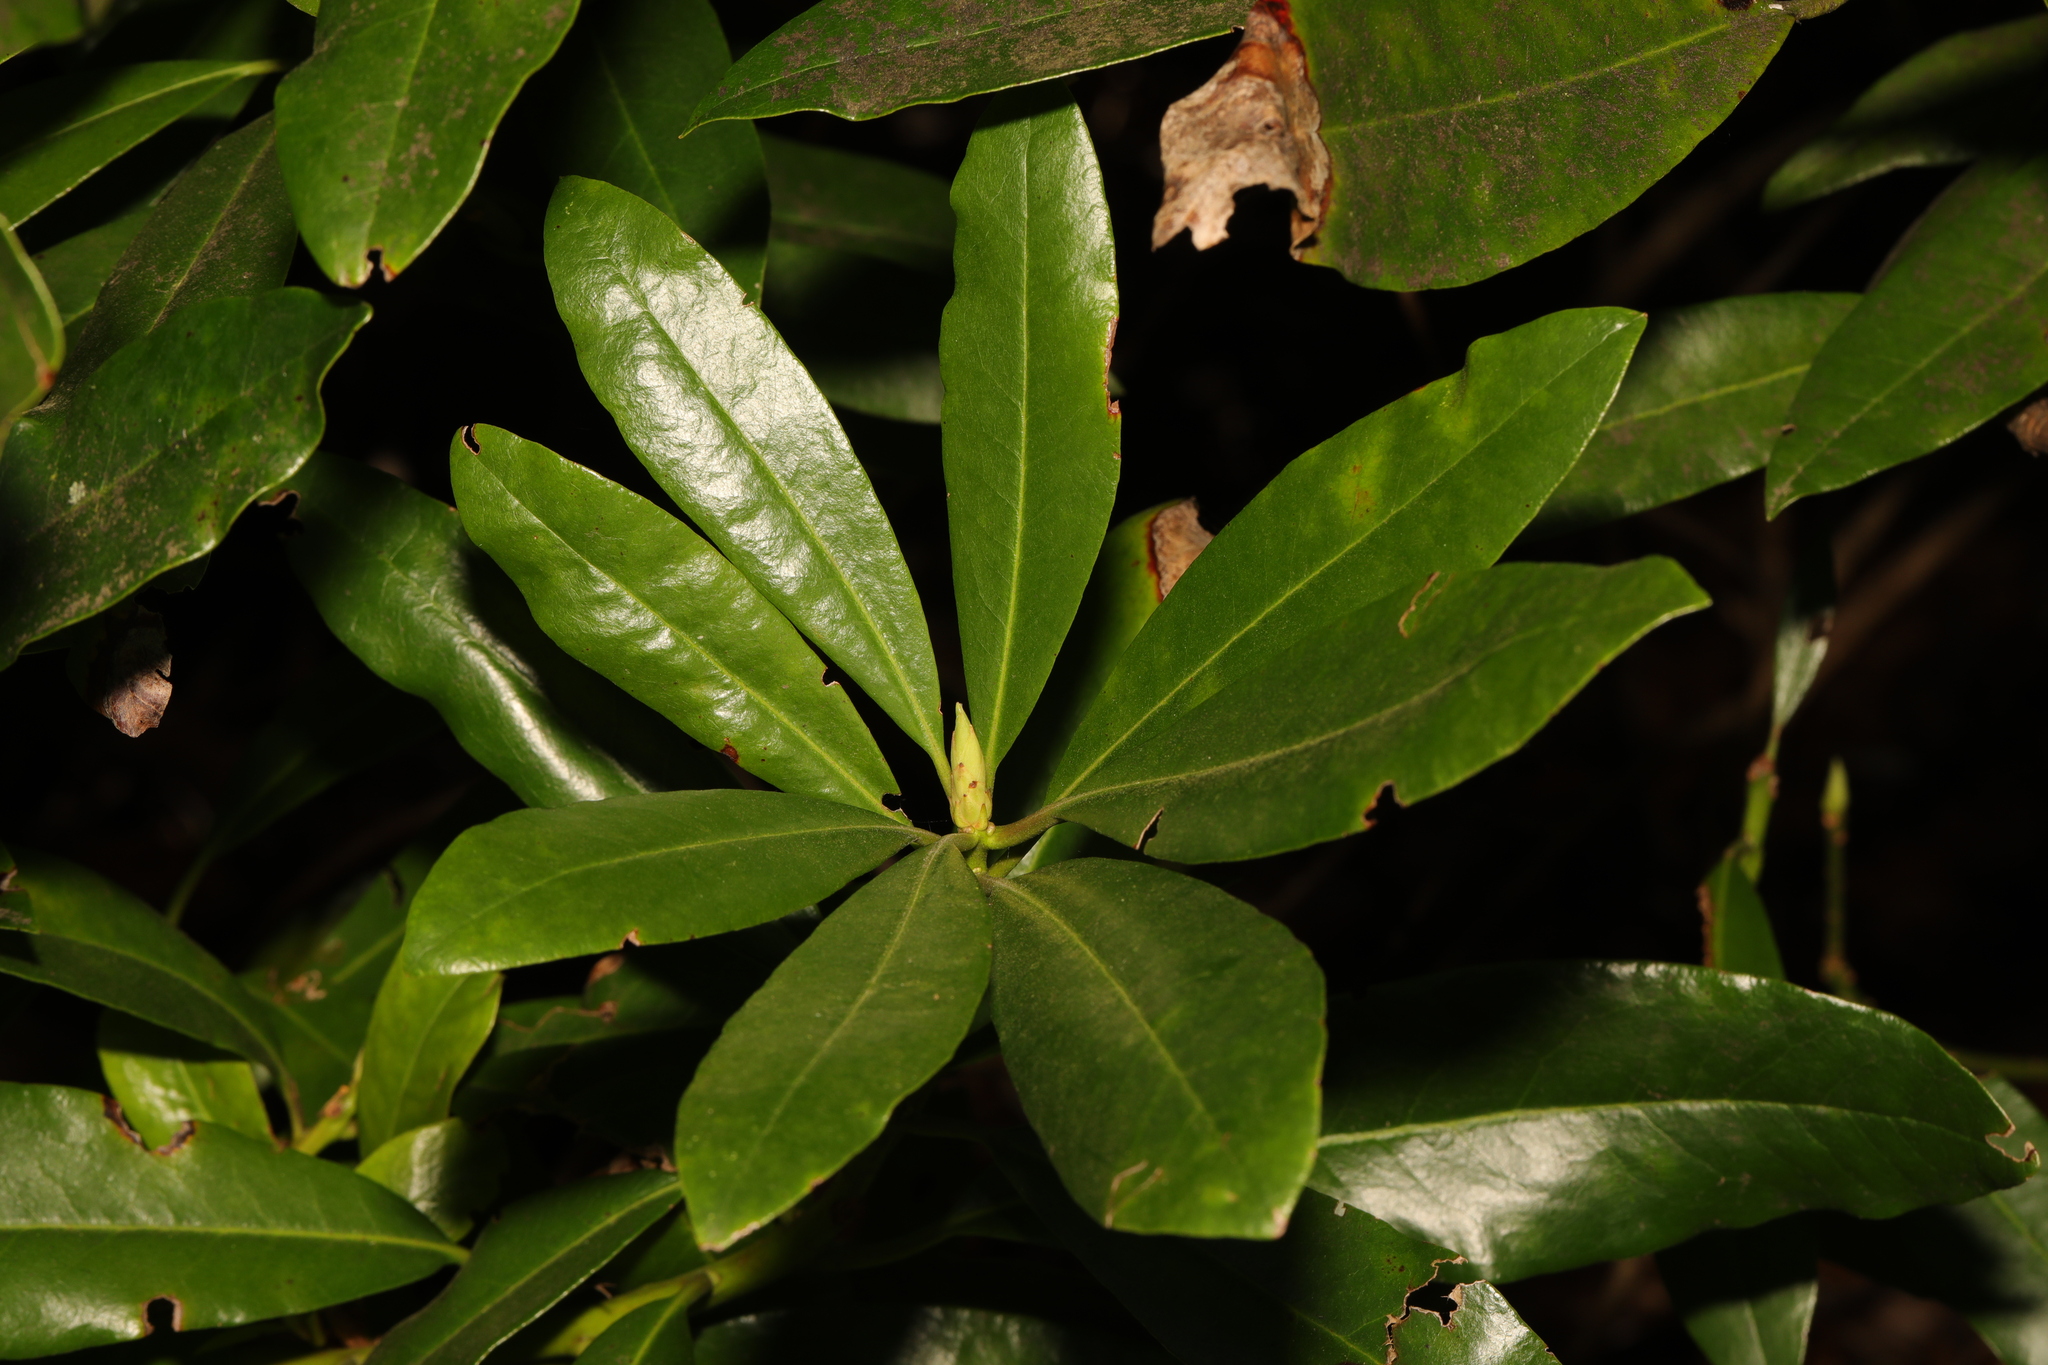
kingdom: Plantae
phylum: Tracheophyta
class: Magnoliopsida
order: Ericales
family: Ericaceae
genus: Rhododendron
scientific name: Rhododendron ponticum
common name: Rhododendron
